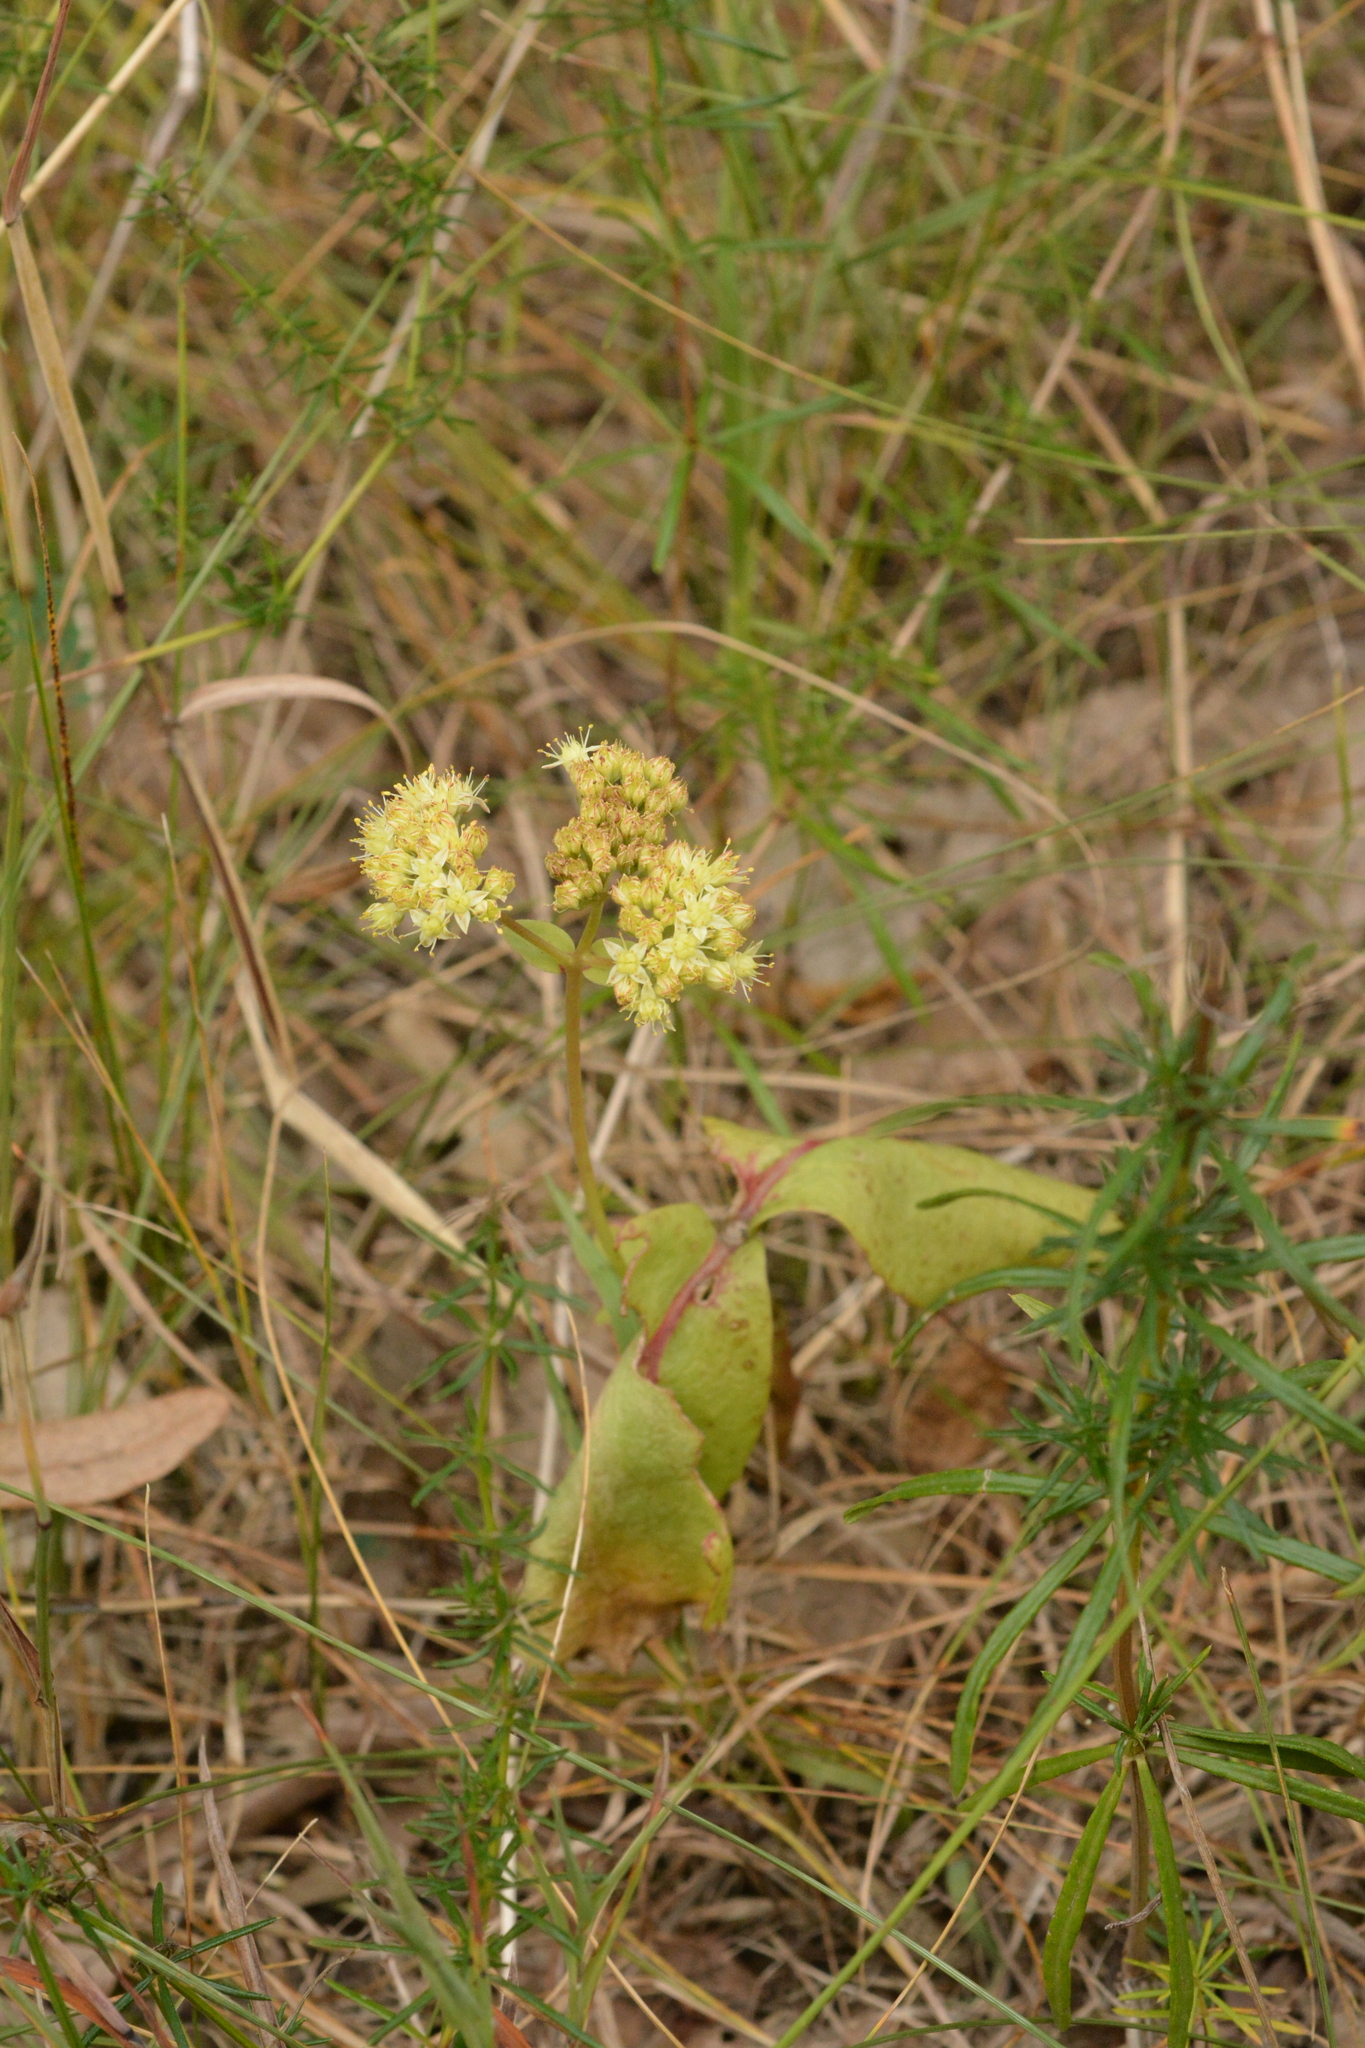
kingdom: Plantae
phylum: Tracheophyta
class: Magnoliopsida
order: Saxifragales
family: Crassulaceae
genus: Hylotelephium
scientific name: Hylotelephium maximum
